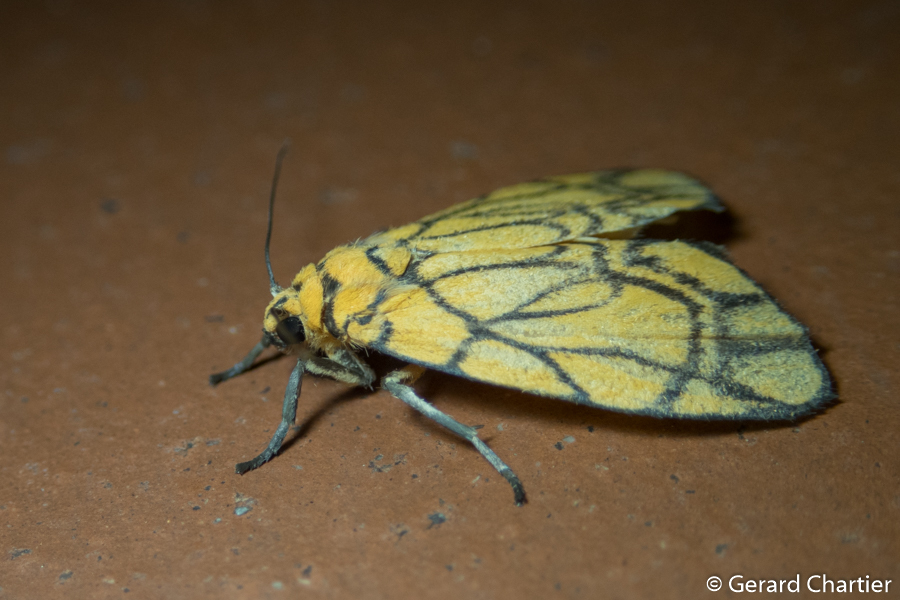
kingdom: Animalia
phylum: Arthropoda
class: Insecta
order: Lepidoptera
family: Erebidae
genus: Cyme
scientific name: Cyme euprepioides
